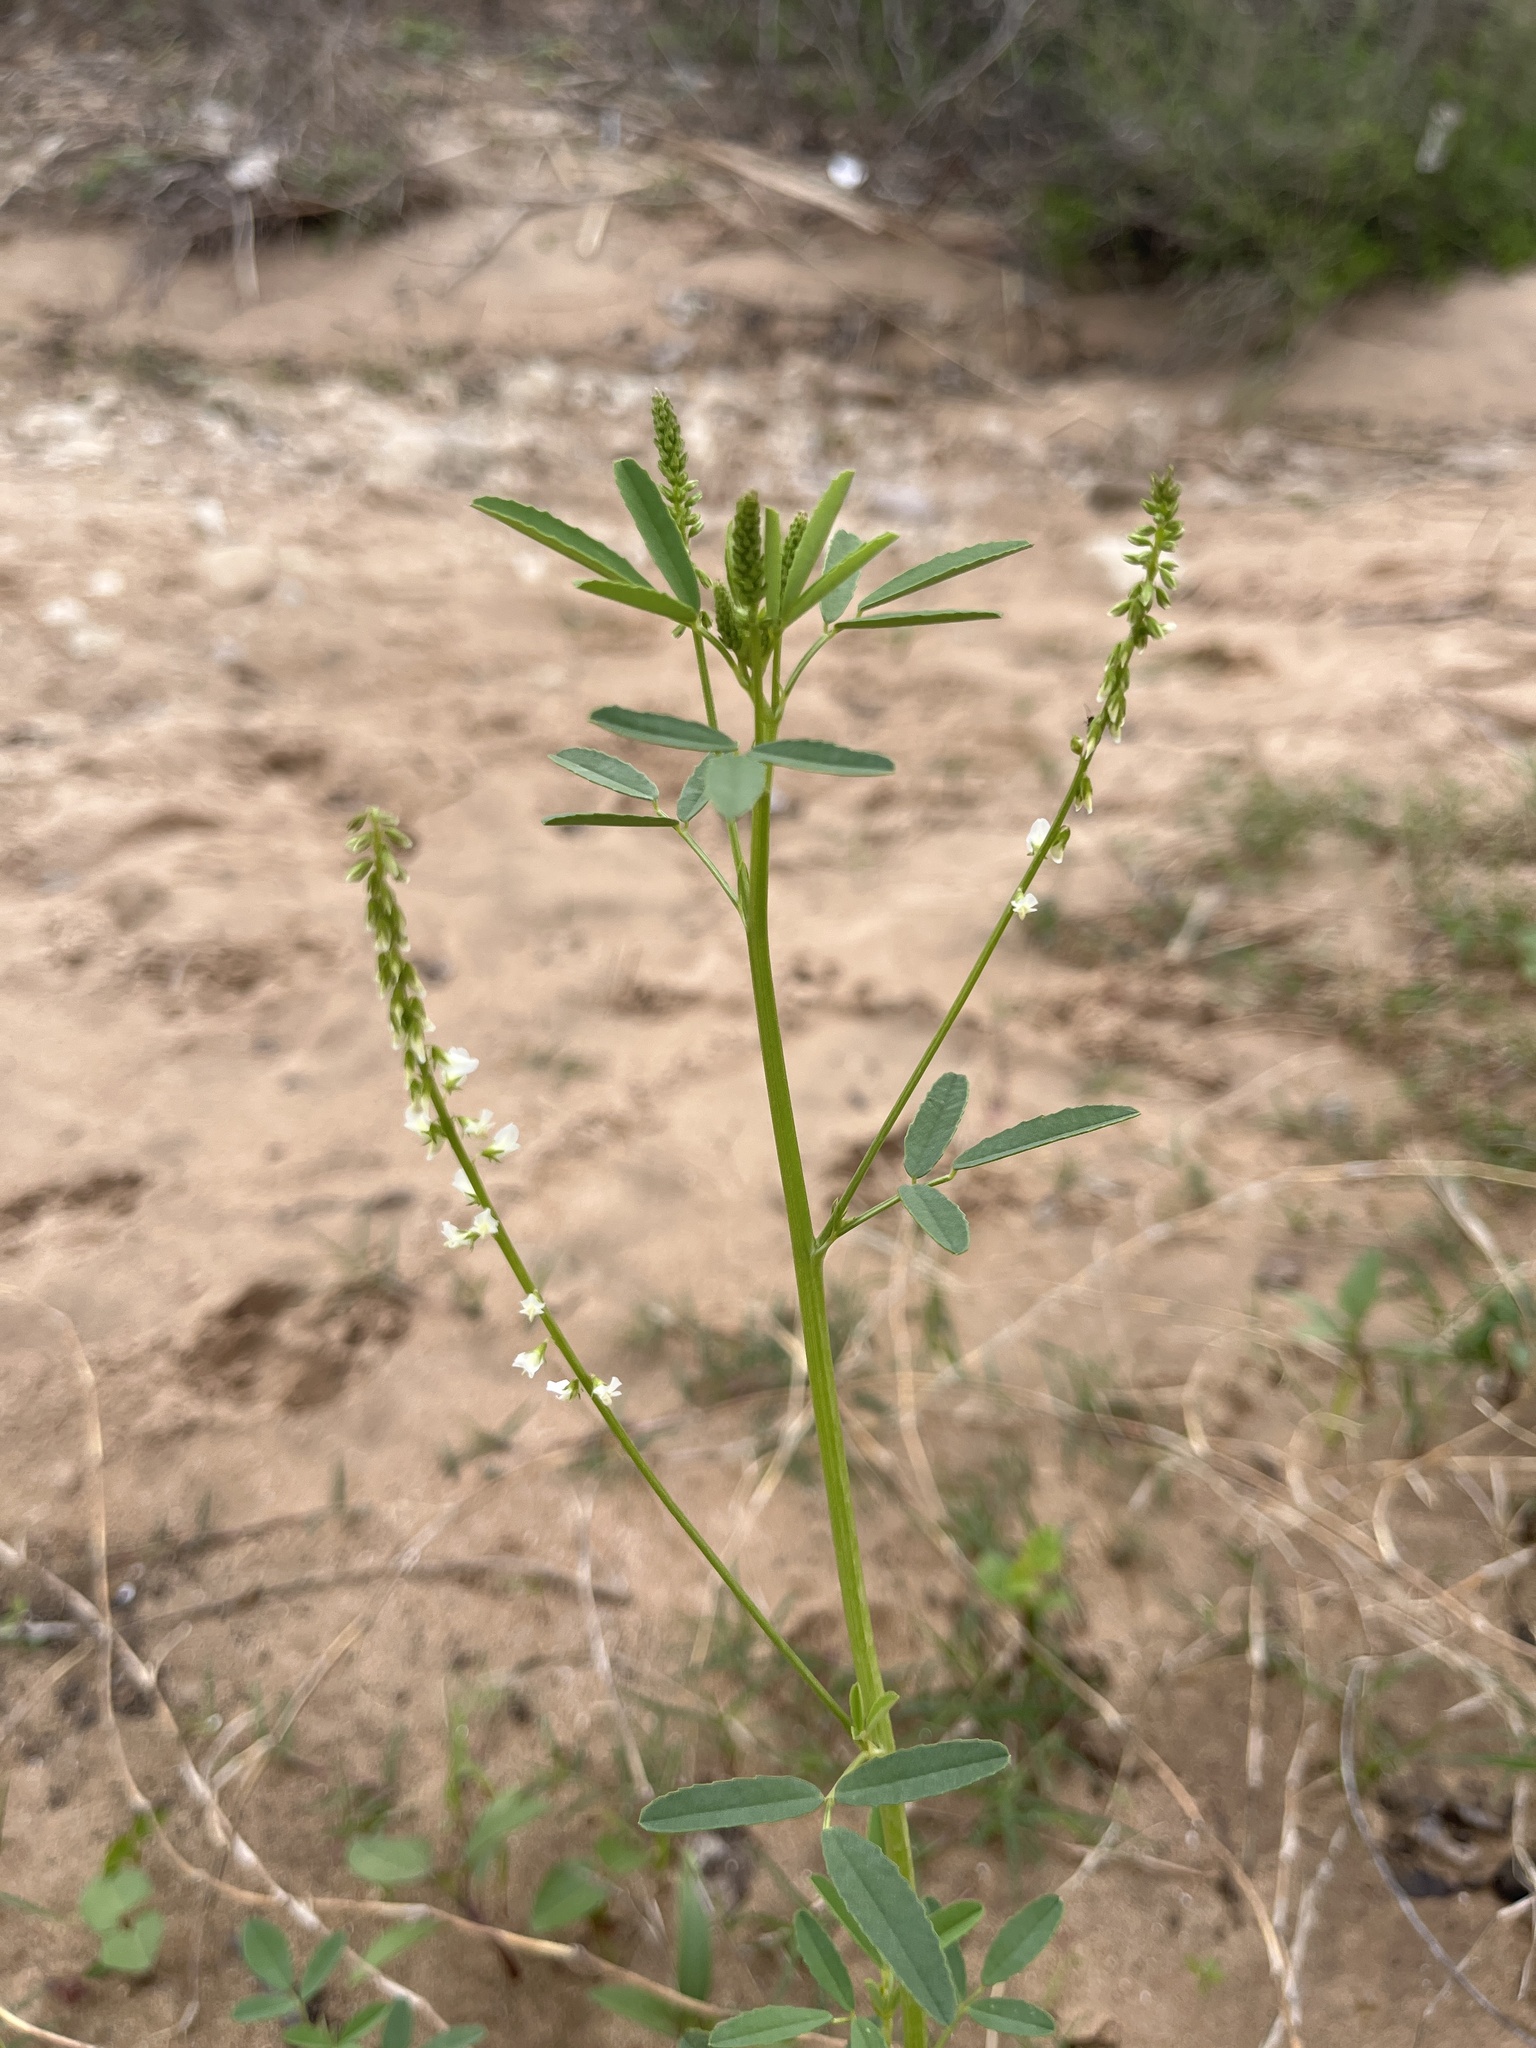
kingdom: Plantae
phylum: Tracheophyta
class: Magnoliopsida
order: Fabales
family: Fabaceae
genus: Melilotus
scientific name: Melilotus albus
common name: White melilot
